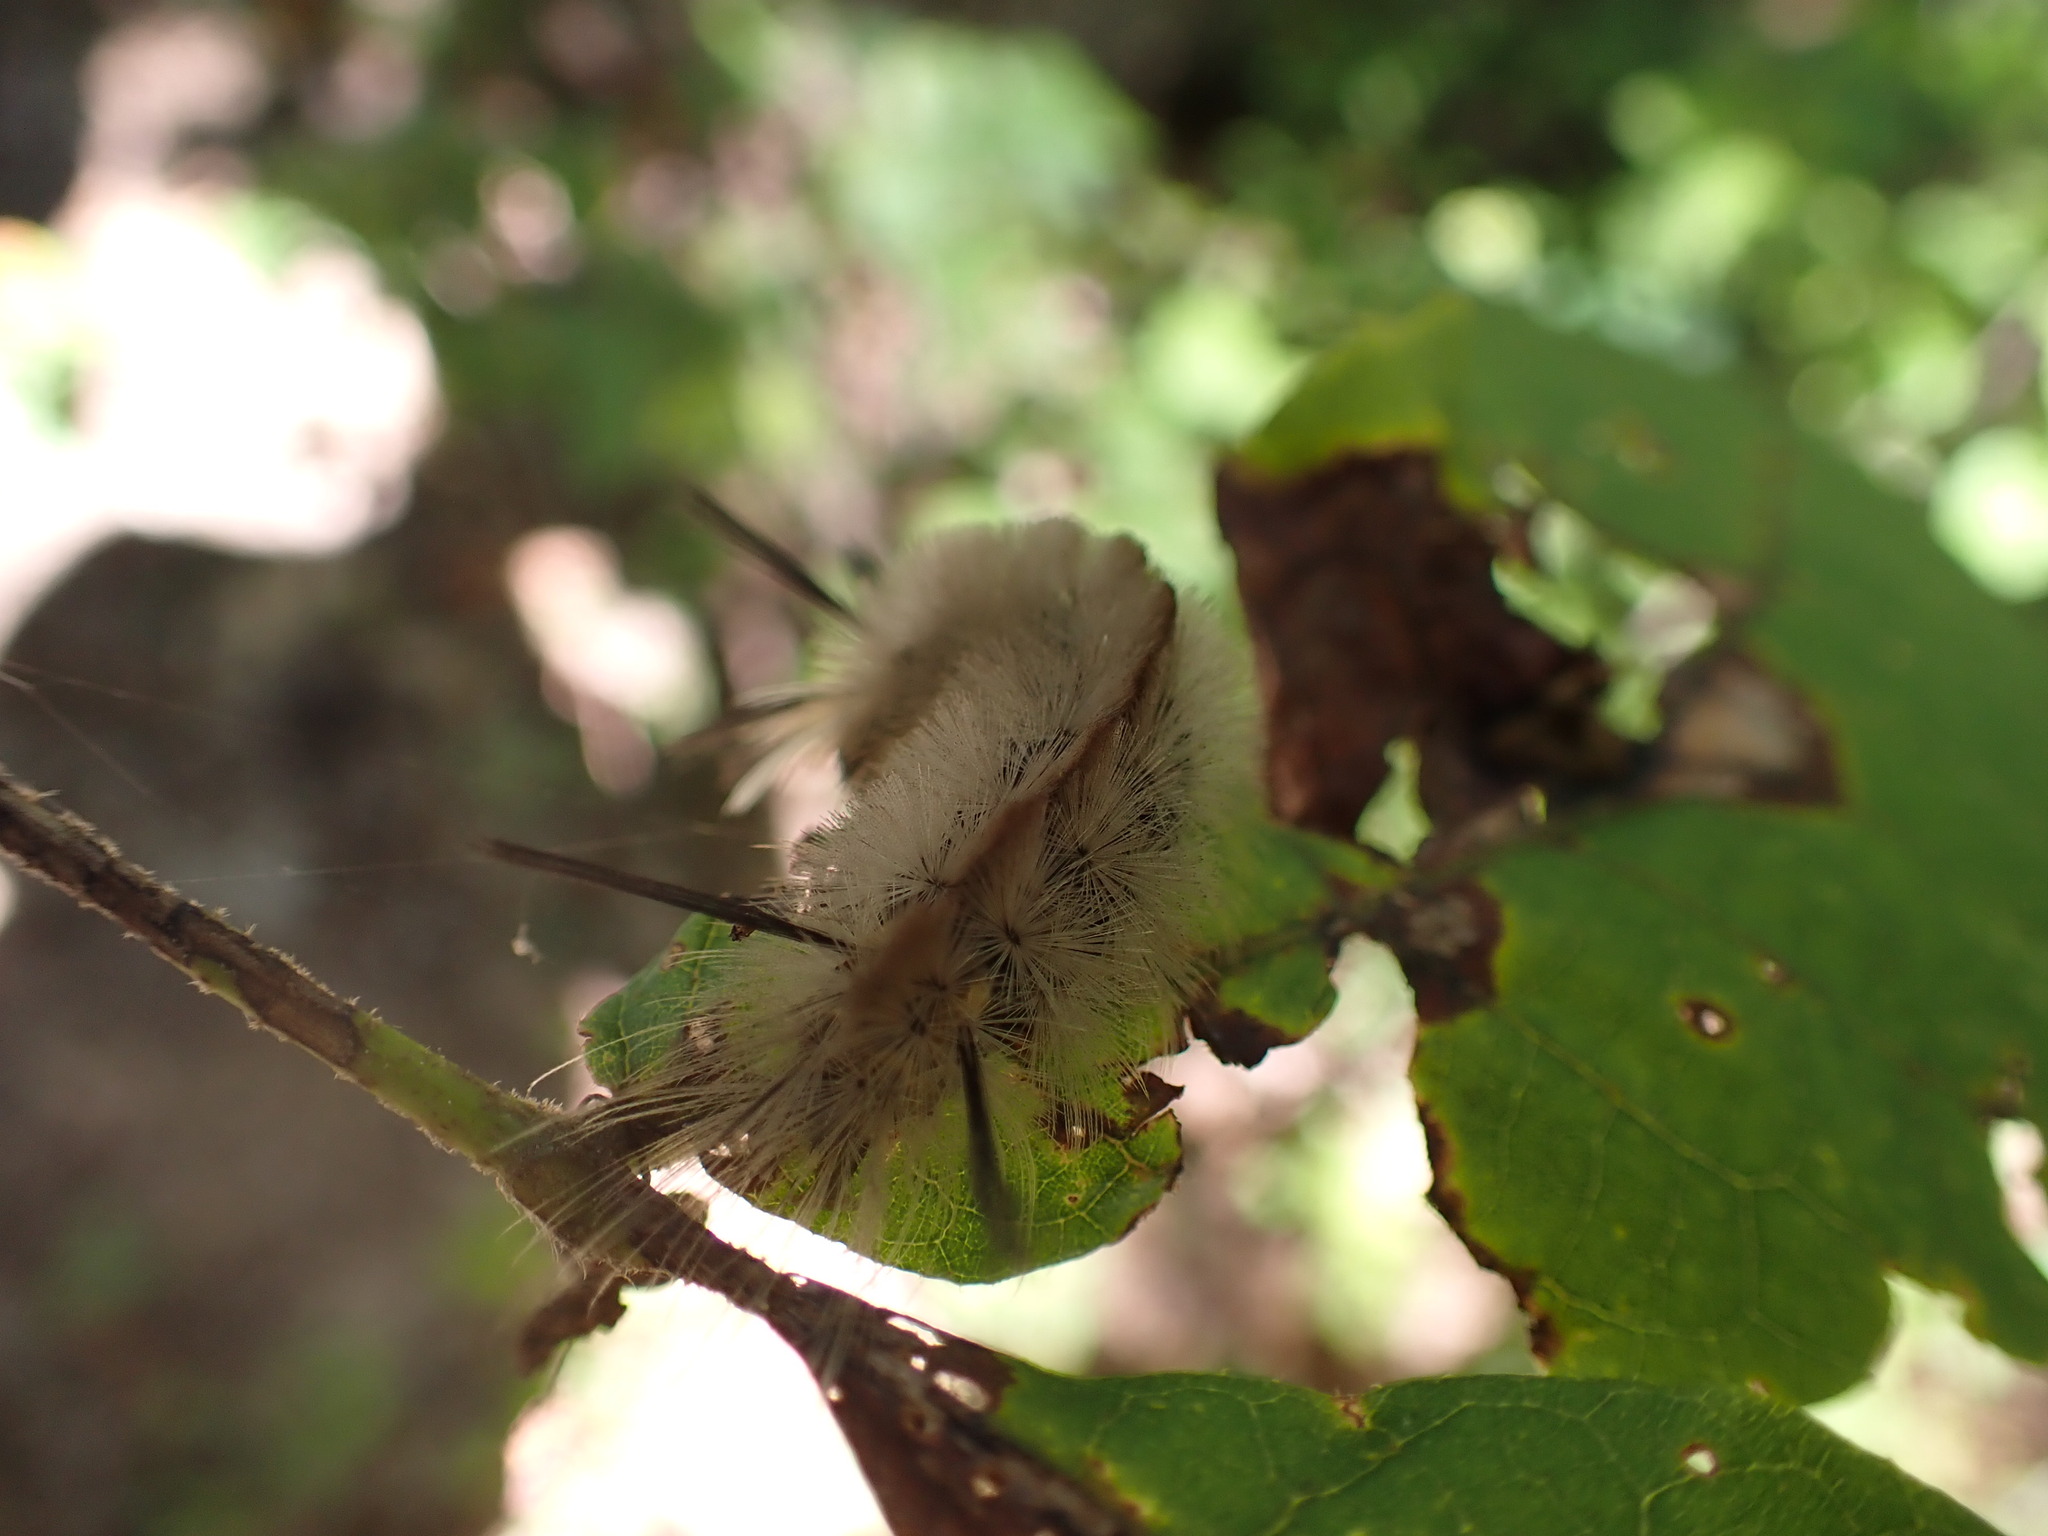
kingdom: Animalia
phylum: Arthropoda
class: Insecta
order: Lepidoptera
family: Erebidae
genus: Halysidota
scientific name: Halysidota tessellaris
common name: Banded tussock moth
